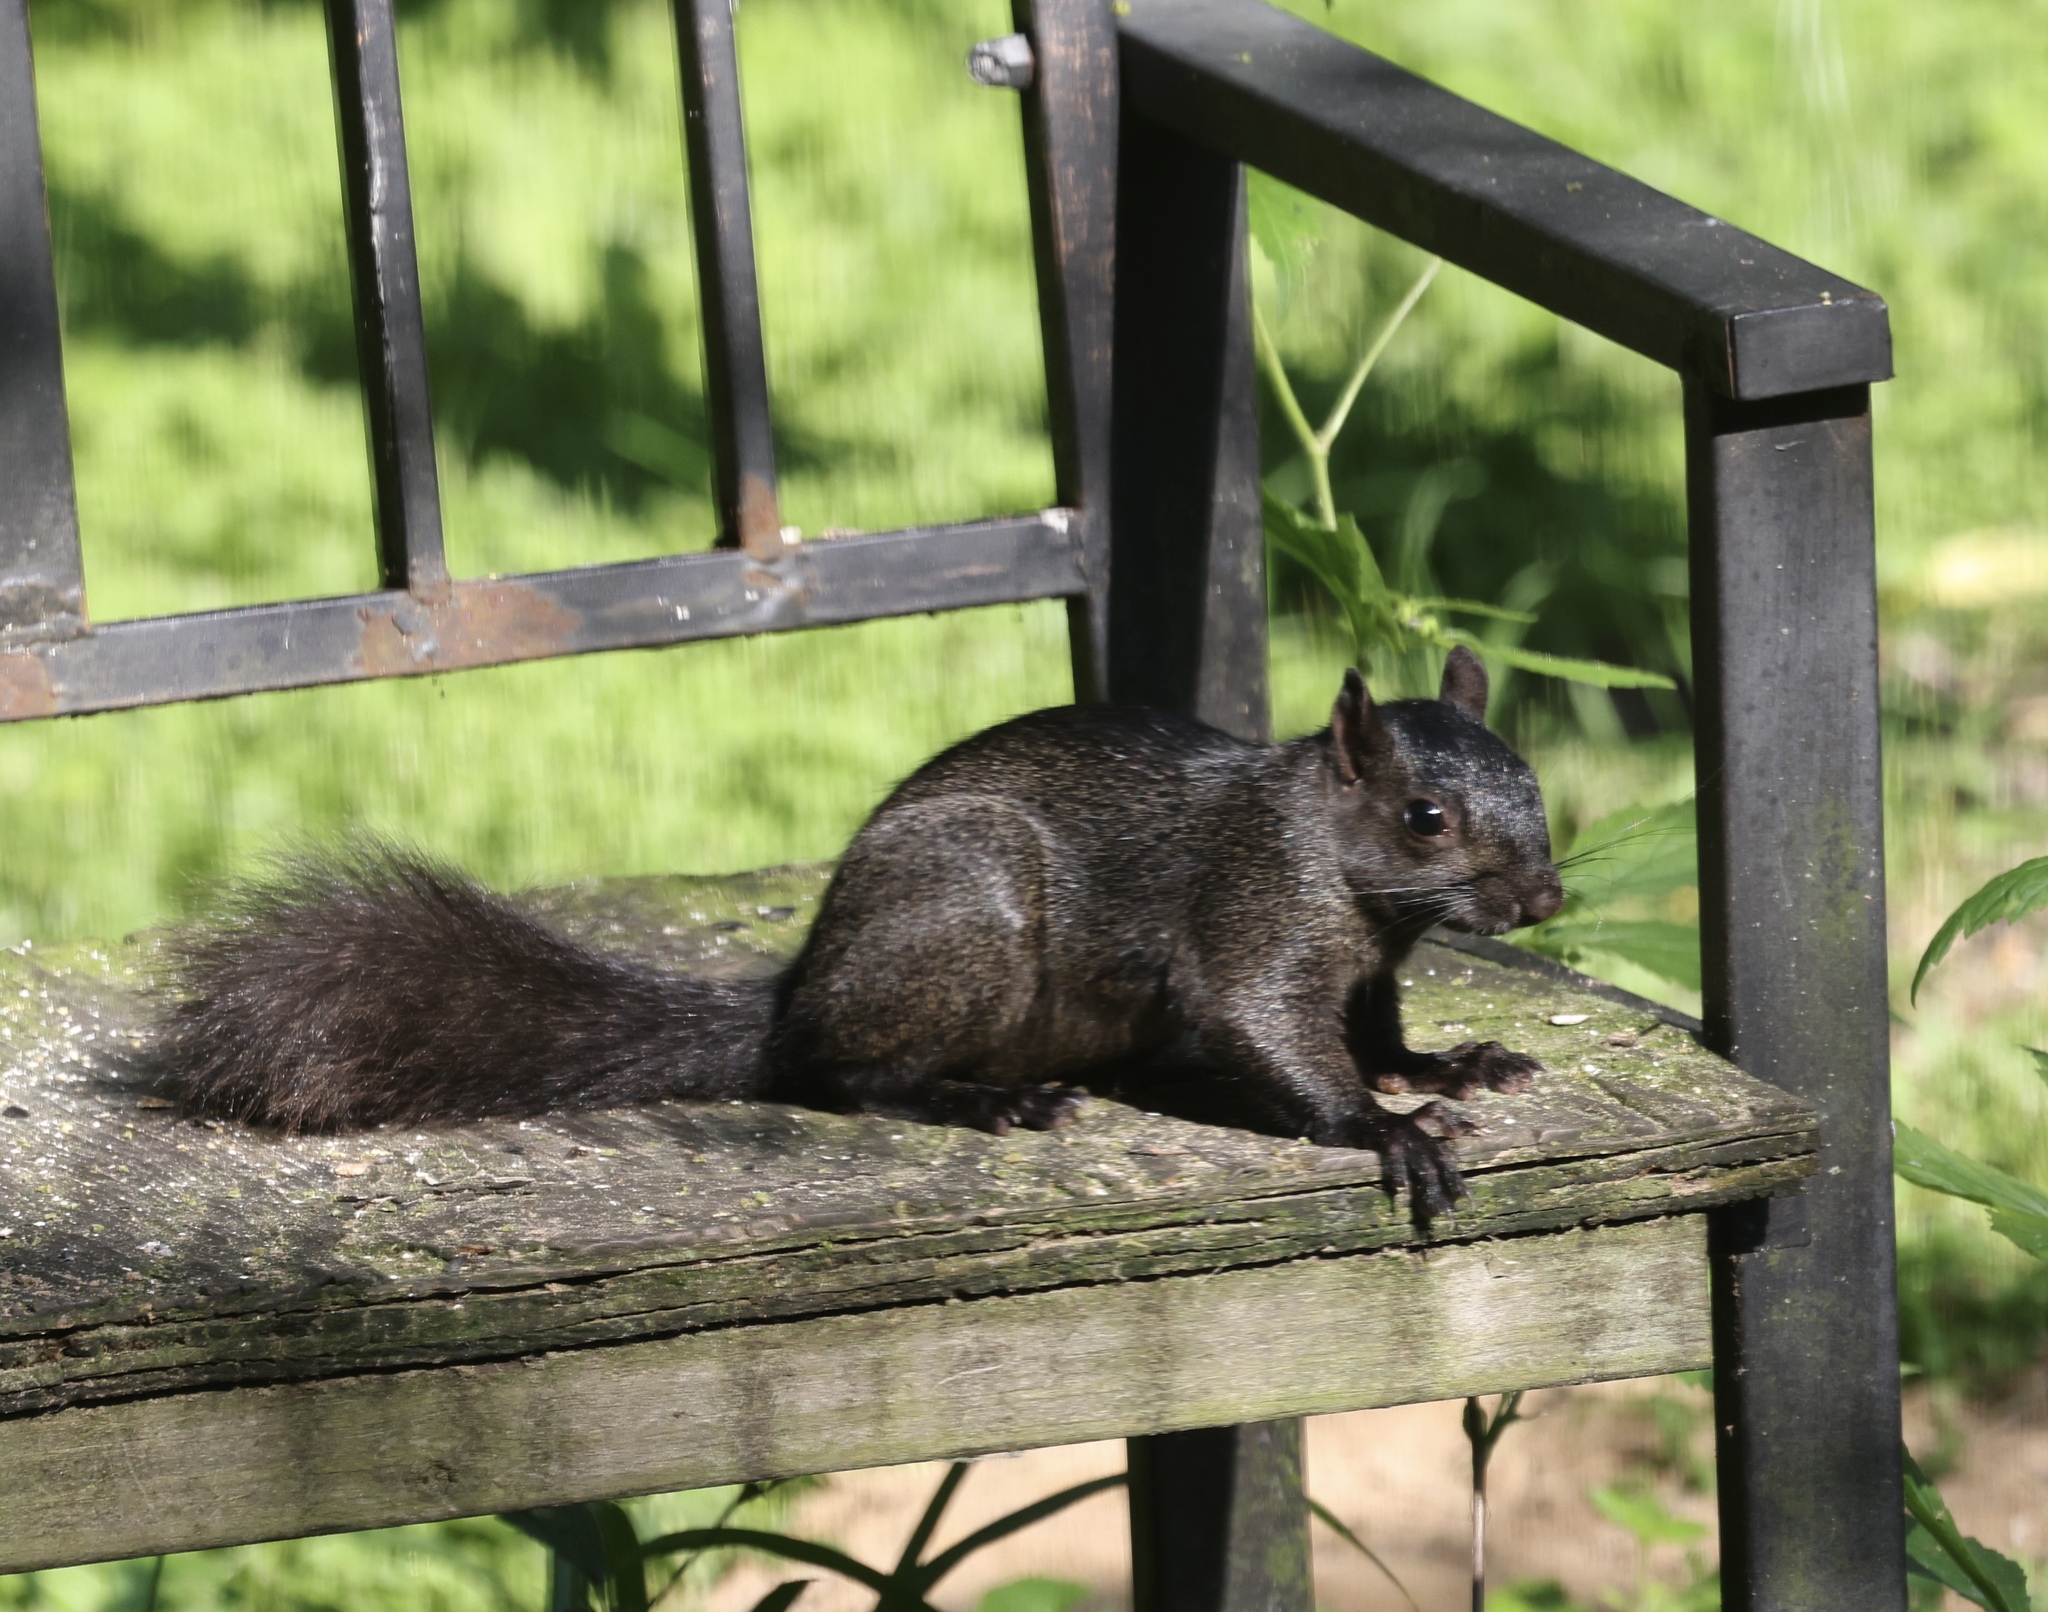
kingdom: Animalia
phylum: Chordata
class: Mammalia
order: Rodentia
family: Sciuridae
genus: Sciurus
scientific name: Sciurus carolinensis
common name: Eastern gray squirrel
